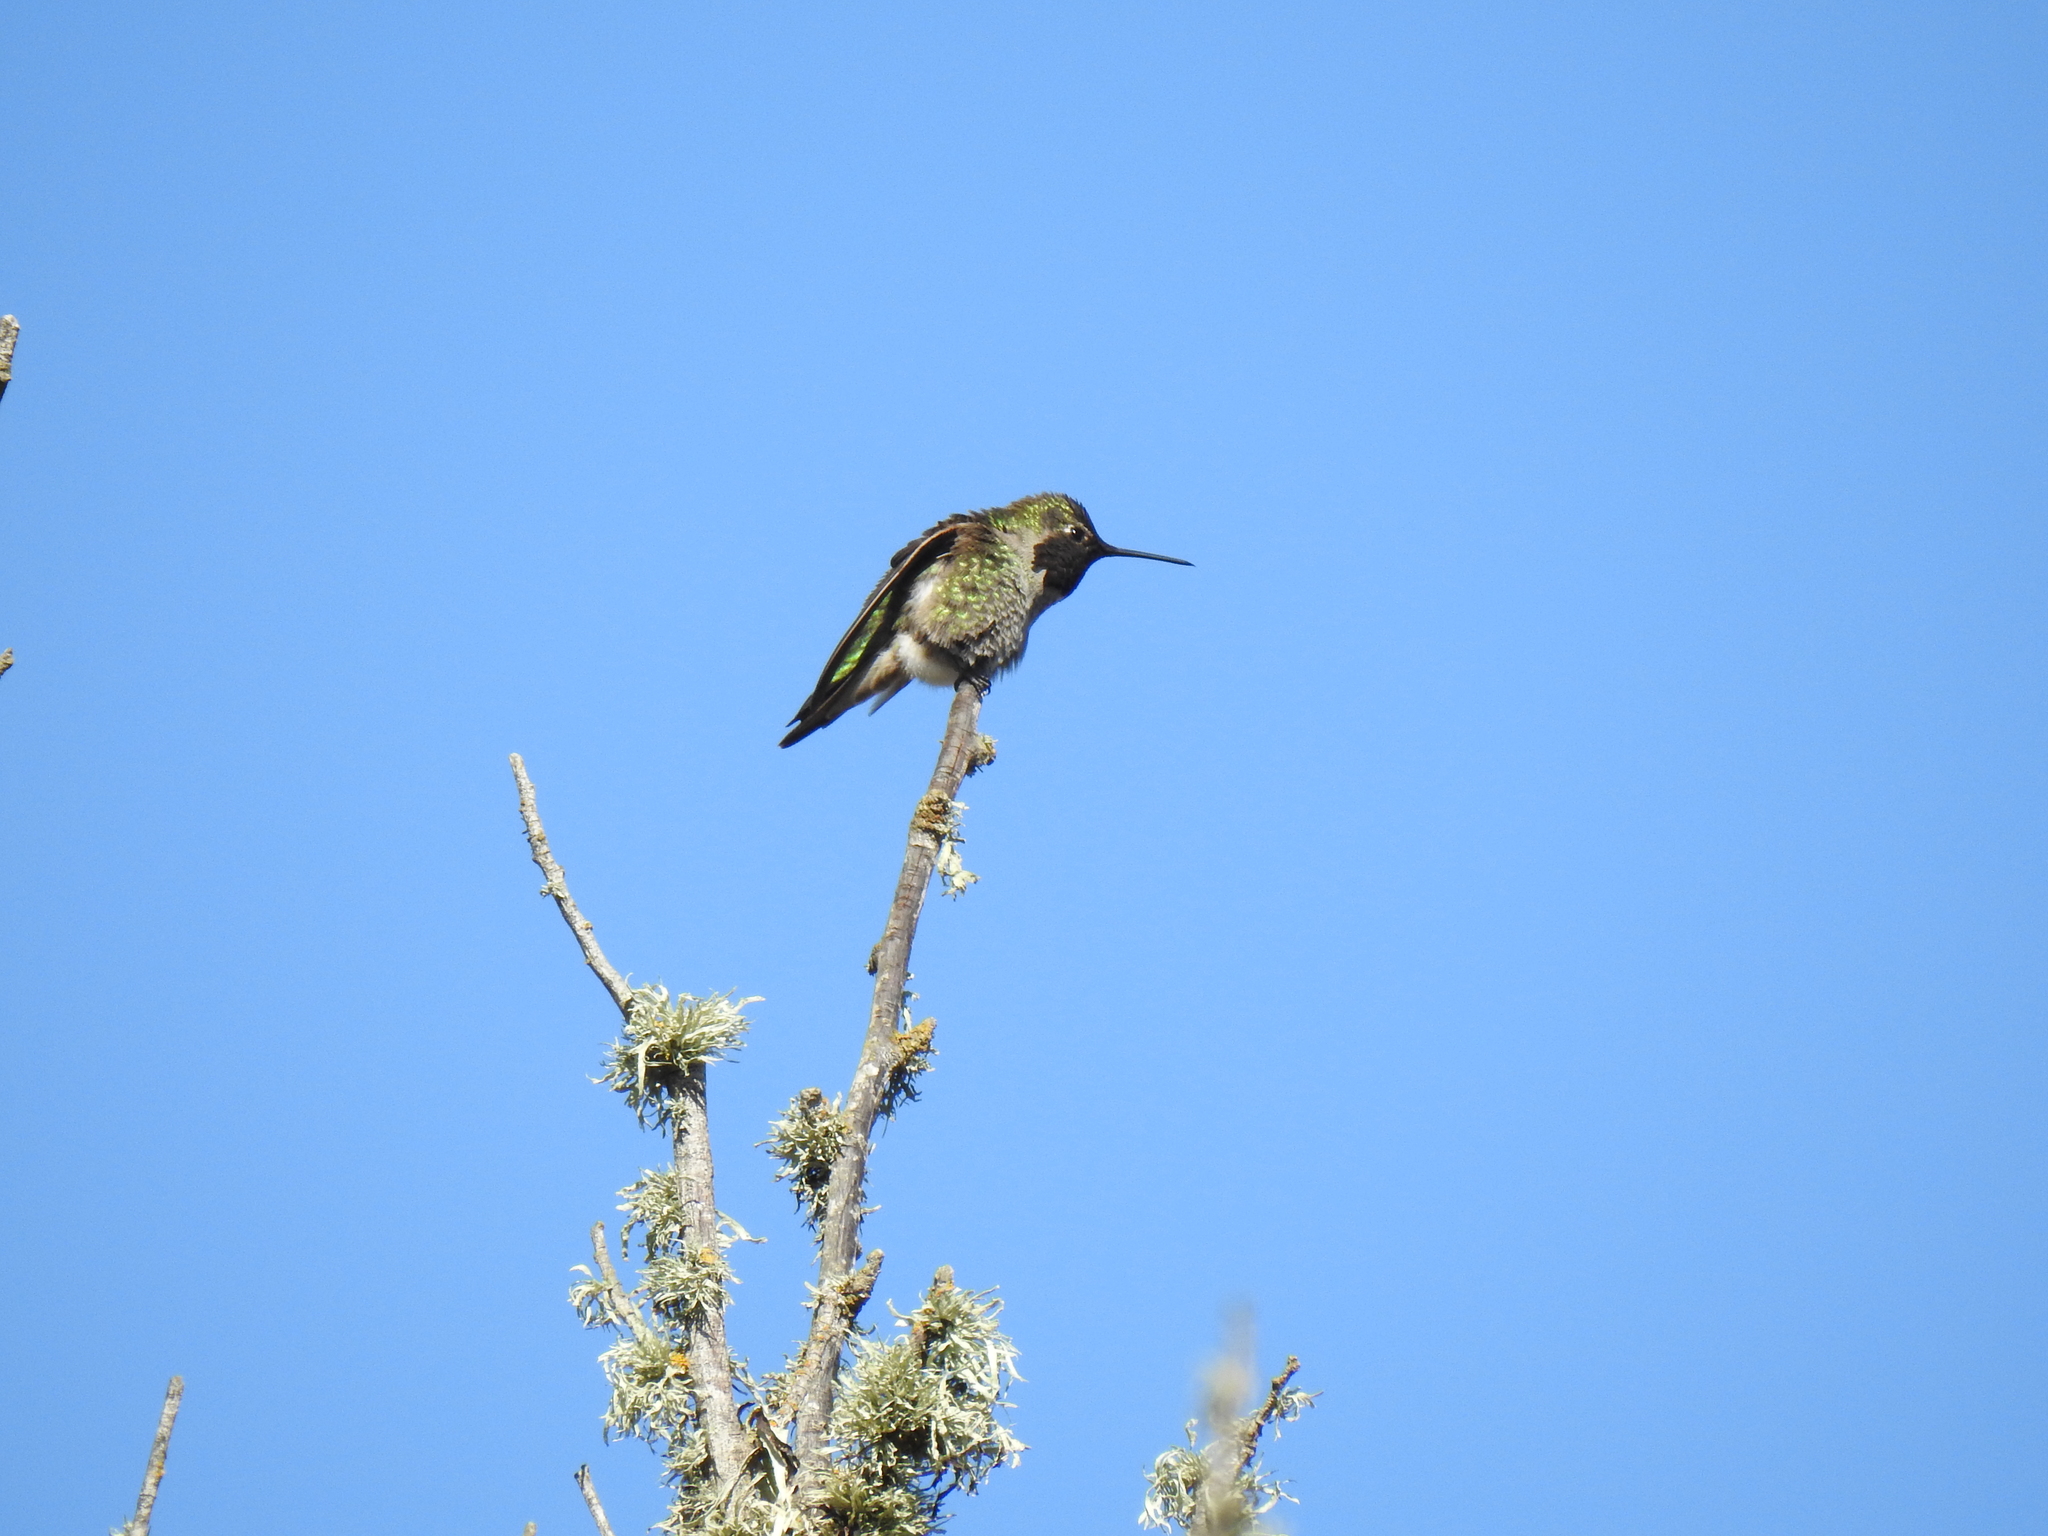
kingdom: Animalia
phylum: Chordata
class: Aves
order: Apodiformes
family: Trochilidae
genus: Calypte
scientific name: Calypte anna
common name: Anna's hummingbird
